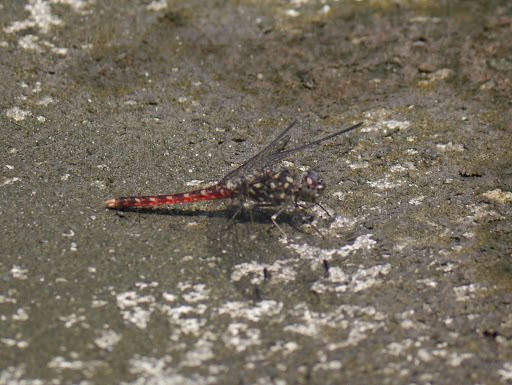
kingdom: Animalia
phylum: Arthropoda
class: Insecta
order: Odonata
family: Libellulidae
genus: Bradinopyga
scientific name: Bradinopyga strachani
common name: Red rock-dweller
